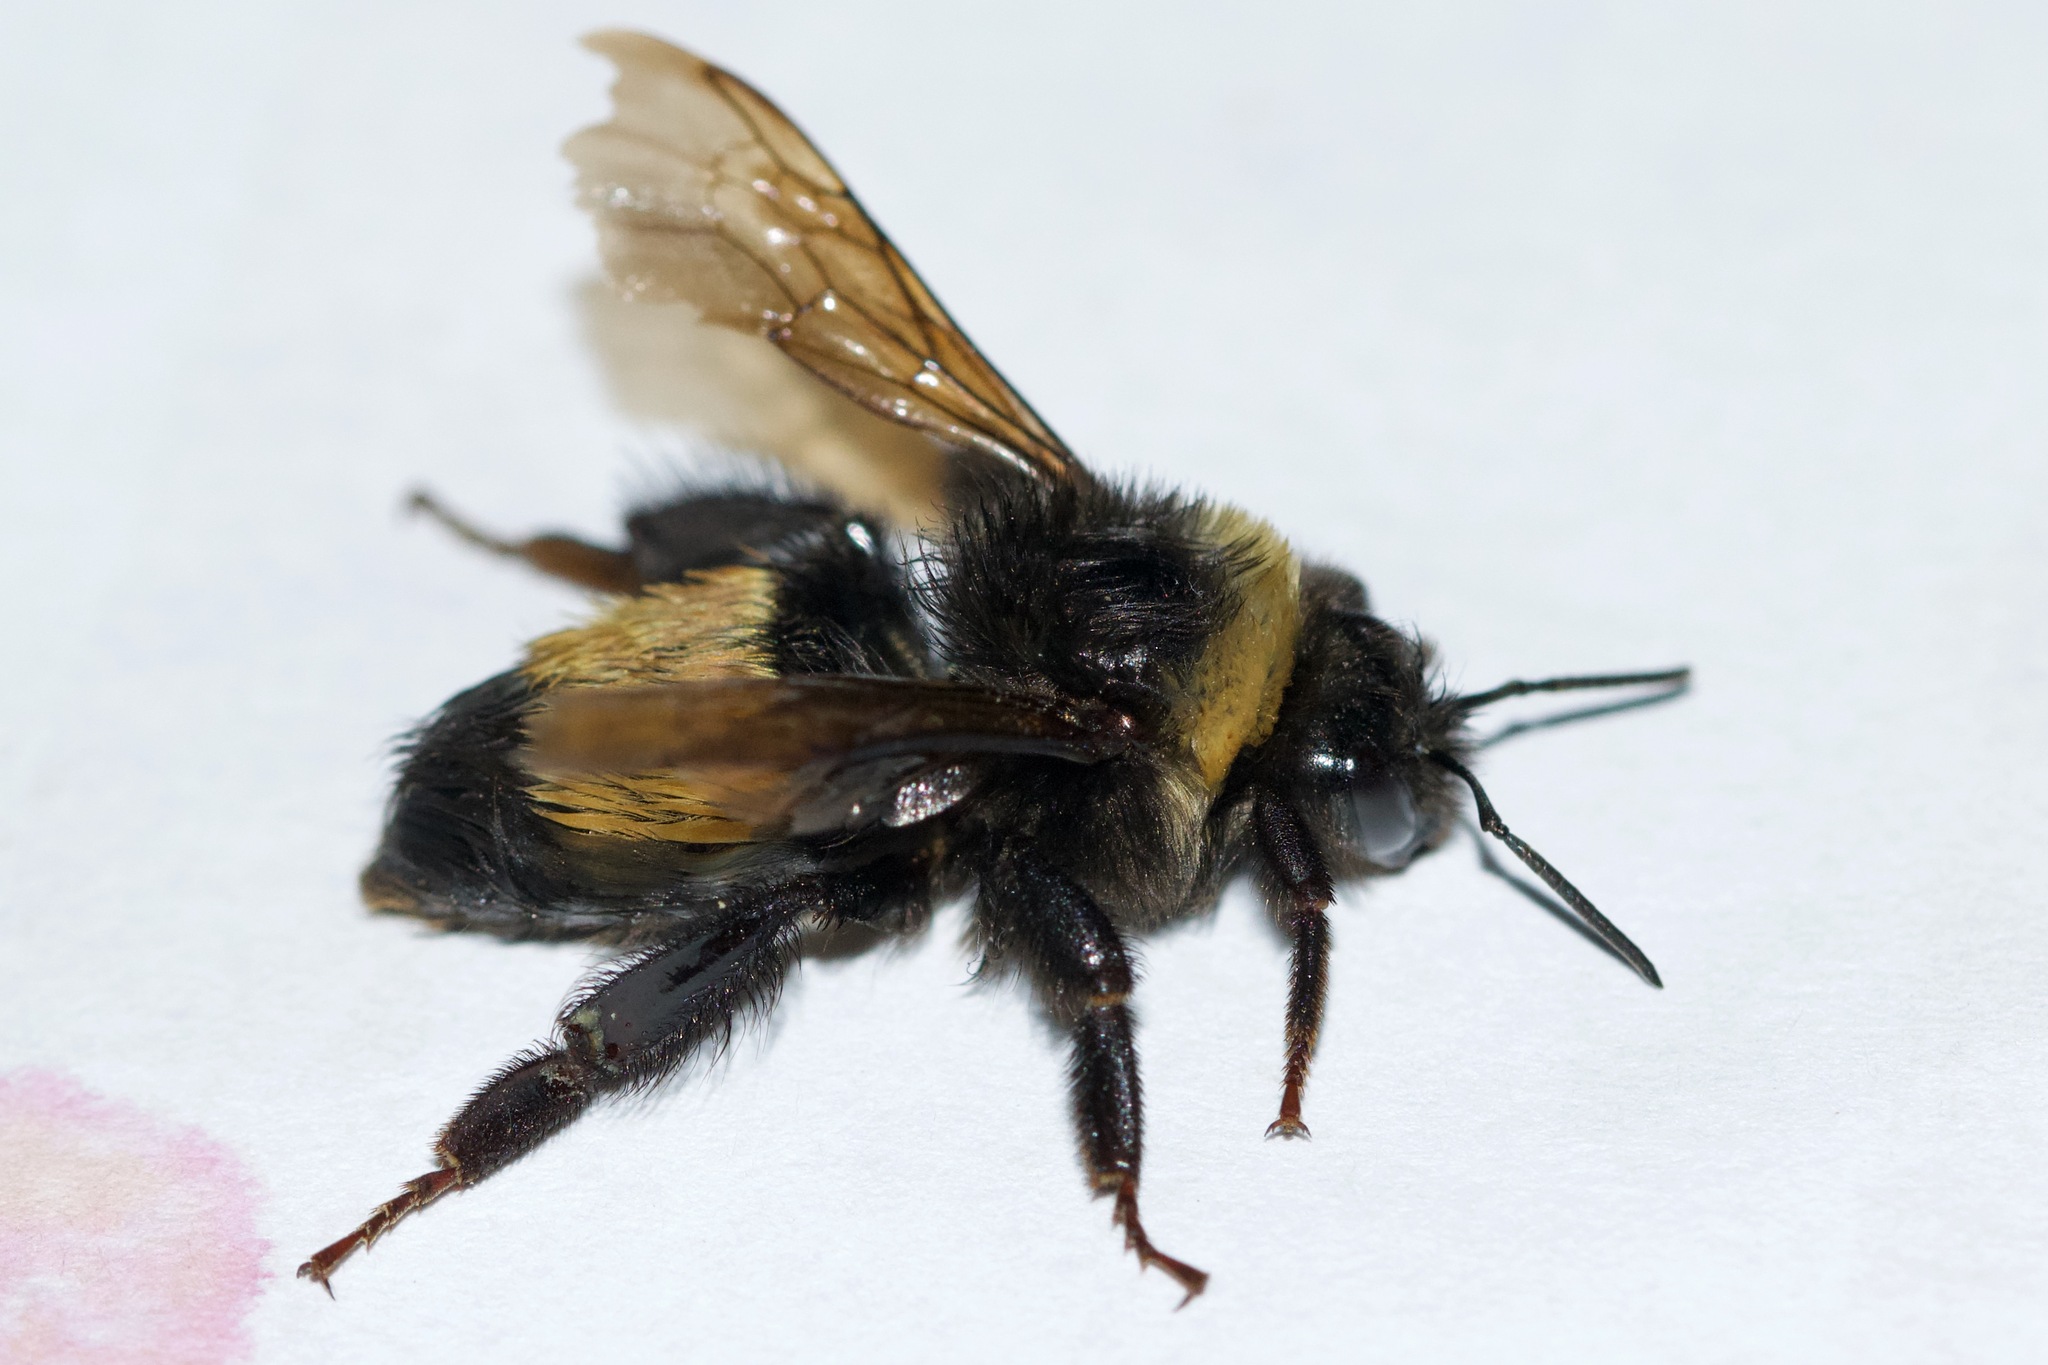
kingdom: Animalia
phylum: Arthropoda
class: Insecta
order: Hymenoptera
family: Apidae
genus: Bombus
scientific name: Bombus terricola
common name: Yellow-banded bumble bee
